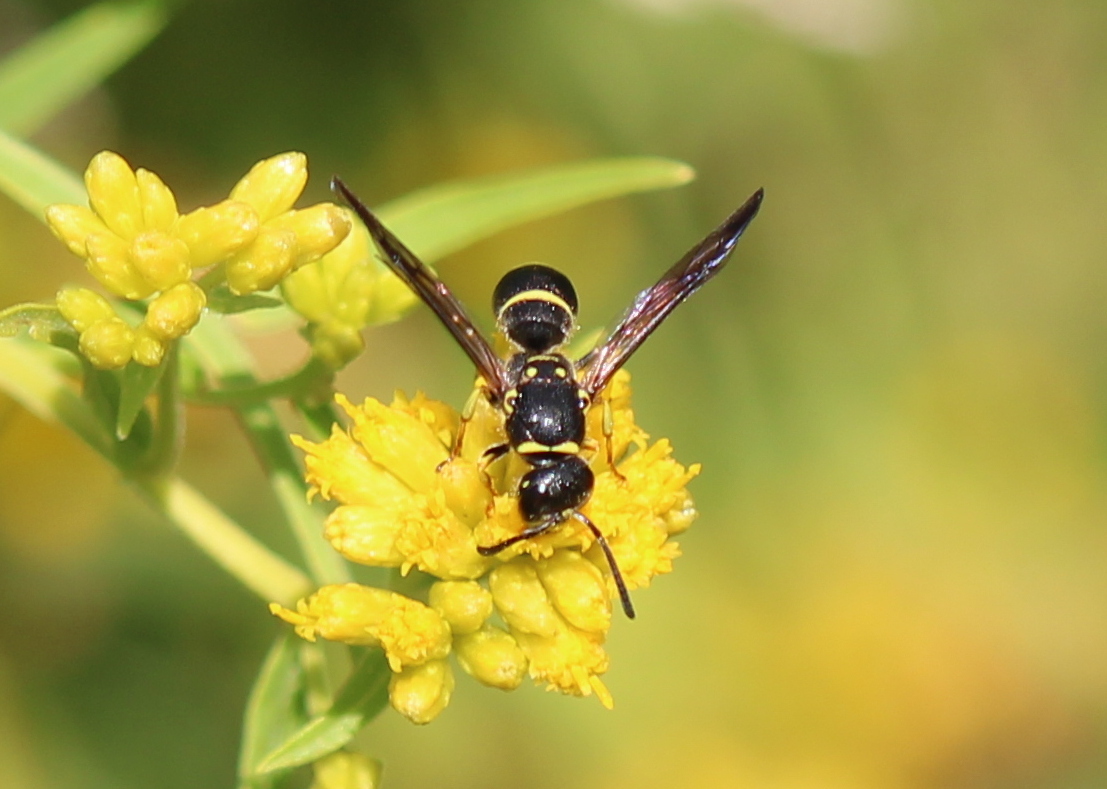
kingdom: Animalia
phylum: Arthropoda
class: Insecta
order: Hymenoptera
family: Vespidae
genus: Ancistrocerus
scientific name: Ancistrocerus adiabatus
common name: Bramble mason wasp
